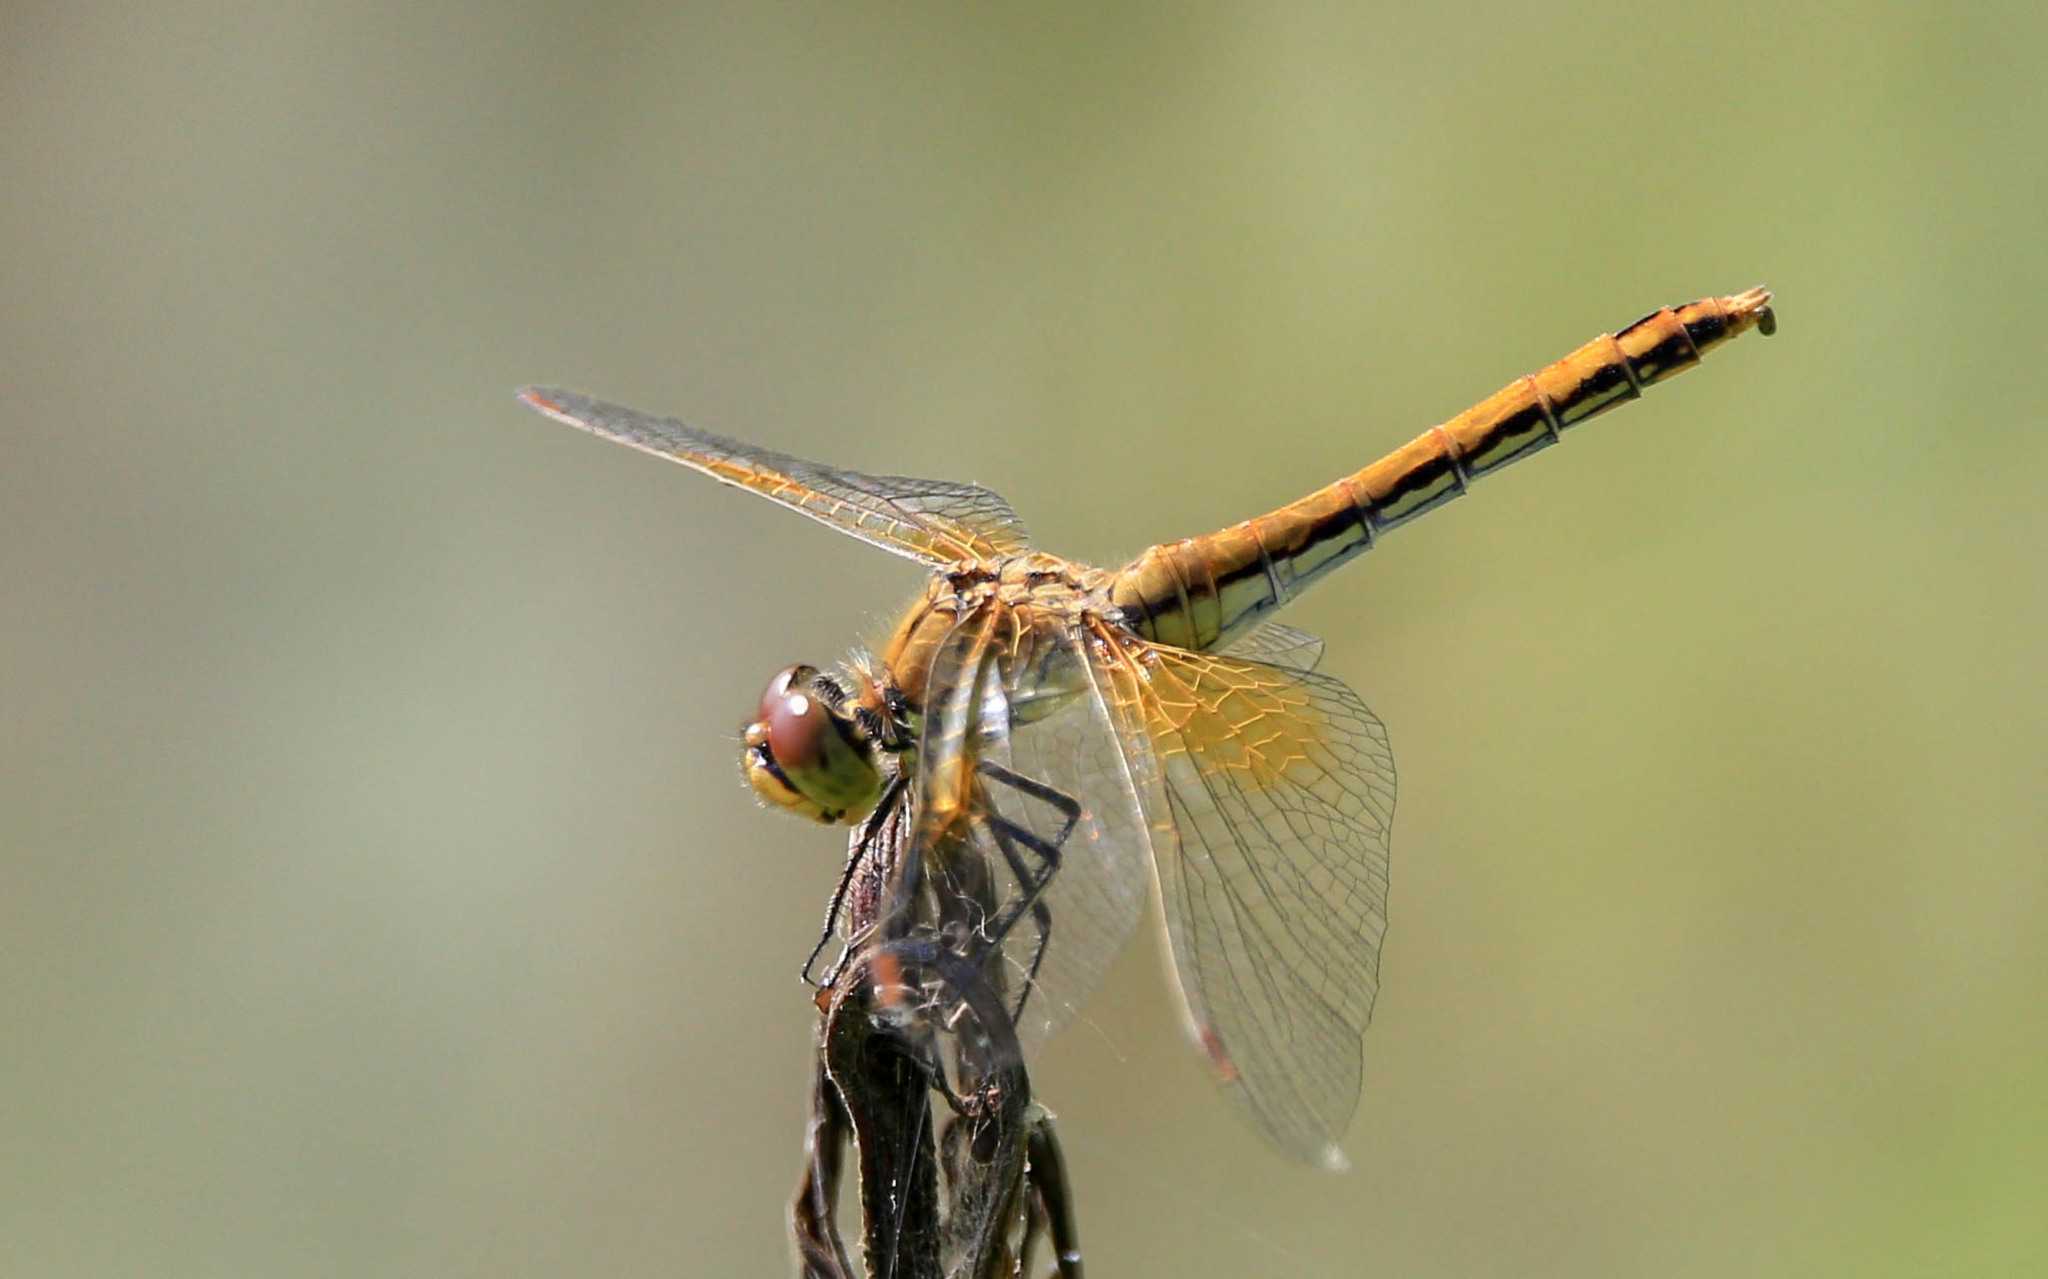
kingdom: Animalia
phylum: Arthropoda
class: Insecta
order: Odonata
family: Libellulidae
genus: Sympetrum
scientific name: Sympetrum flaveolum
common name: Yellow-winged darter
